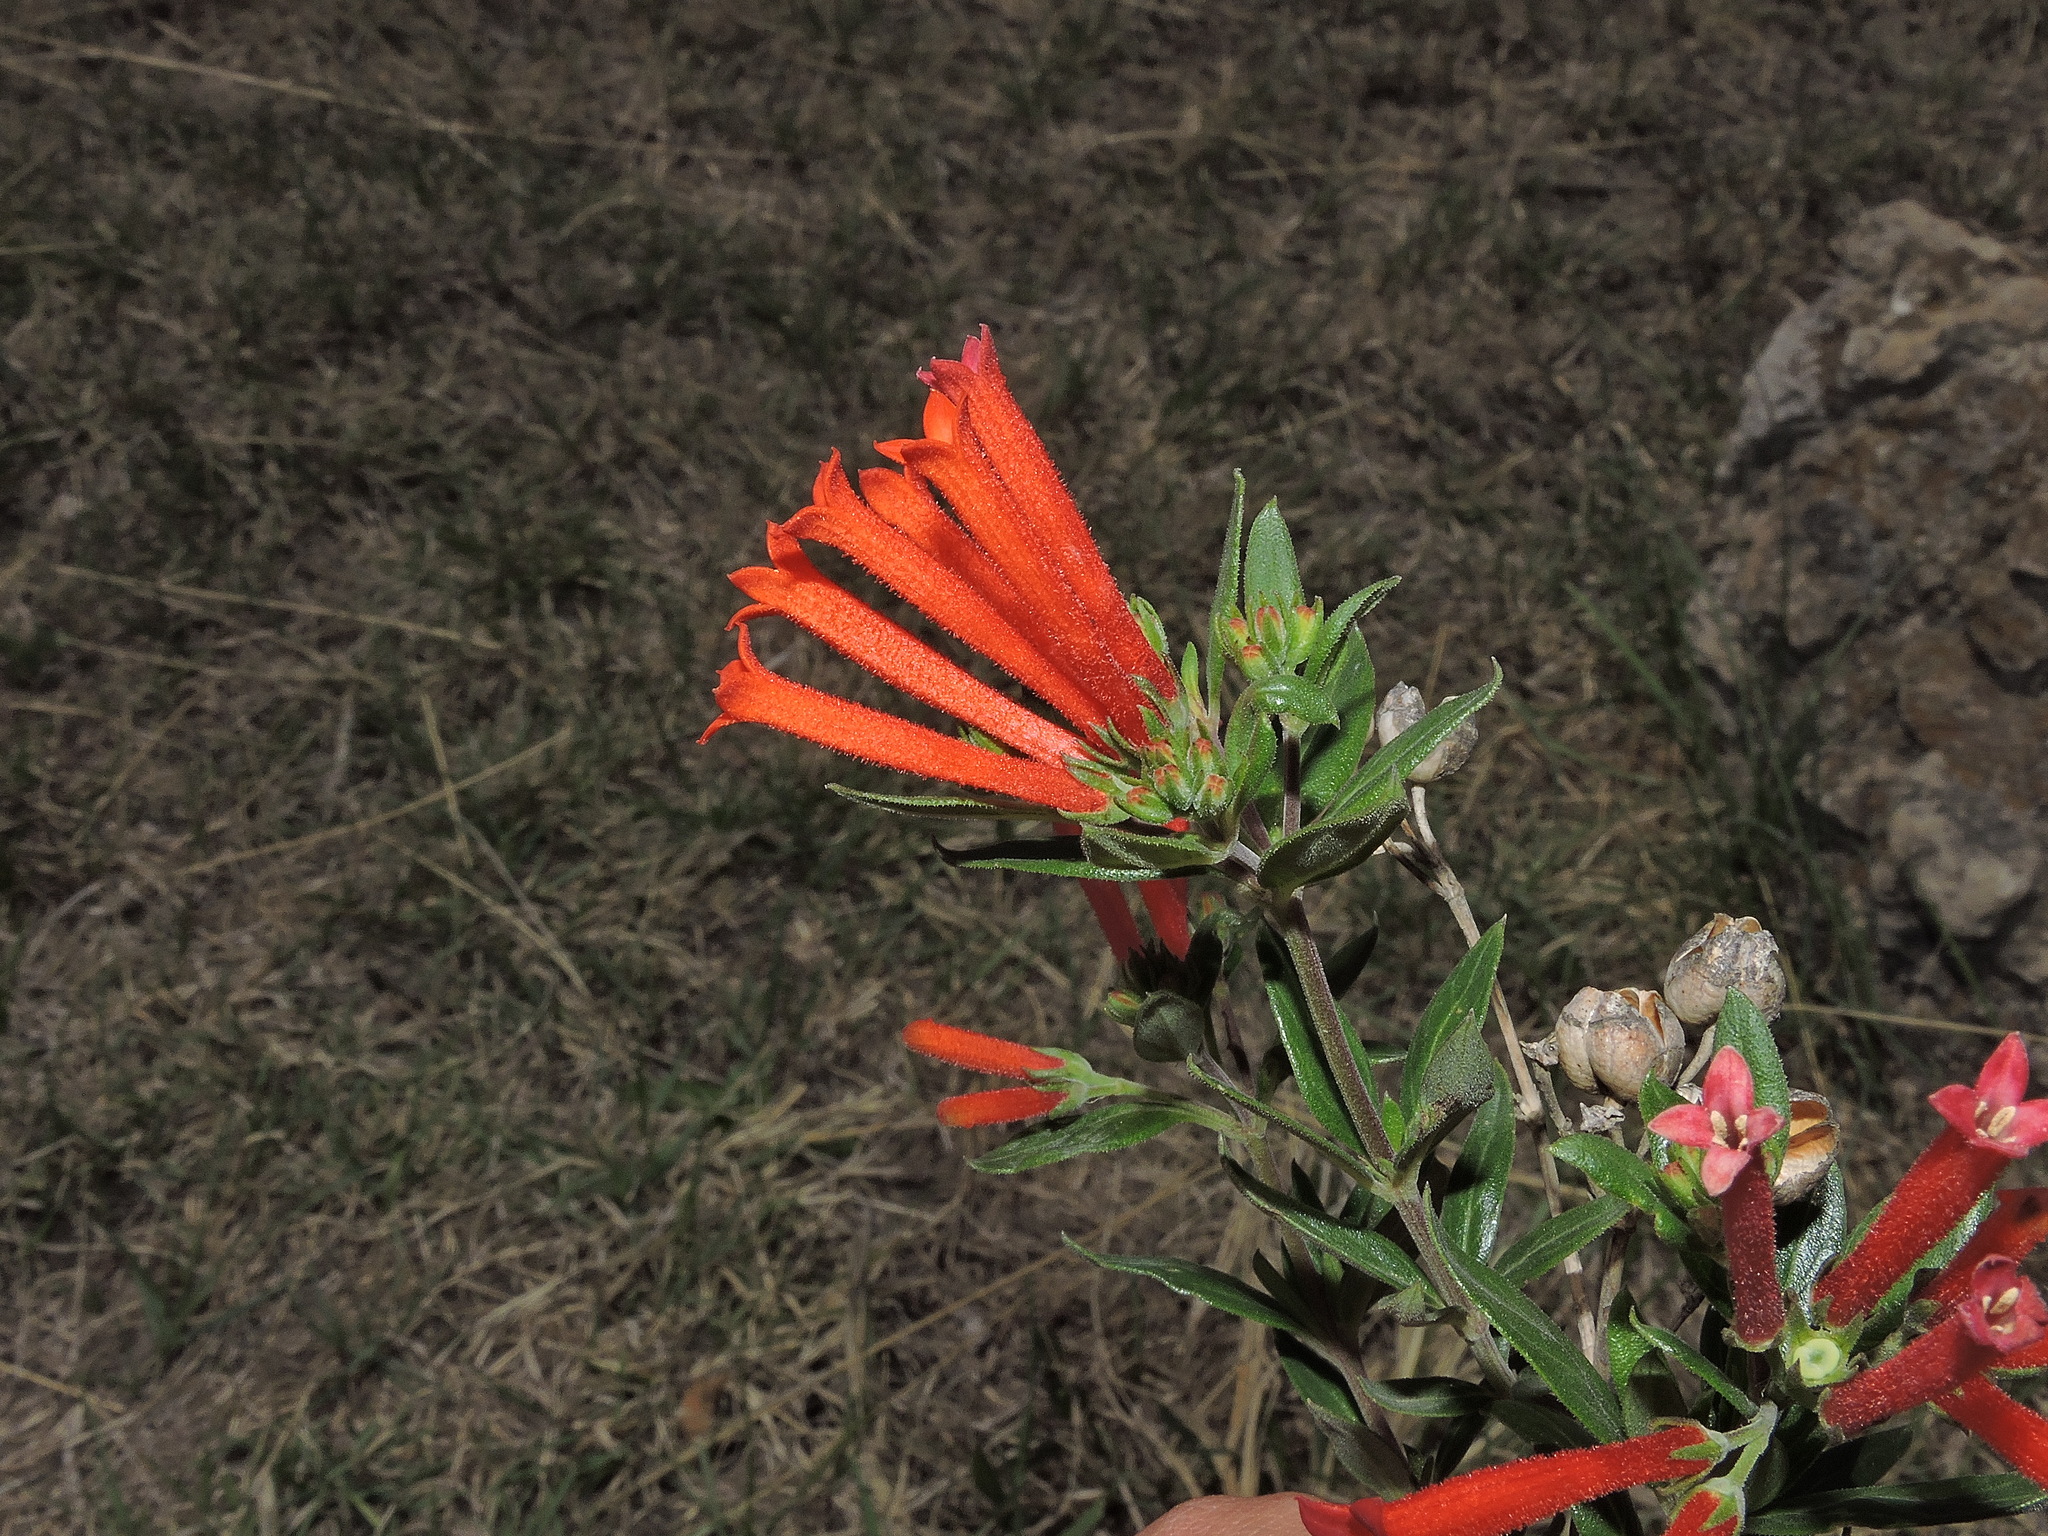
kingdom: Plantae
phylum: Tracheophyta
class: Magnoliopsida
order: Gentianales
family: Rubiaceae
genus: Bouvardia
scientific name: Bouvardia ternifolia
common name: Scarlet bouvardia
